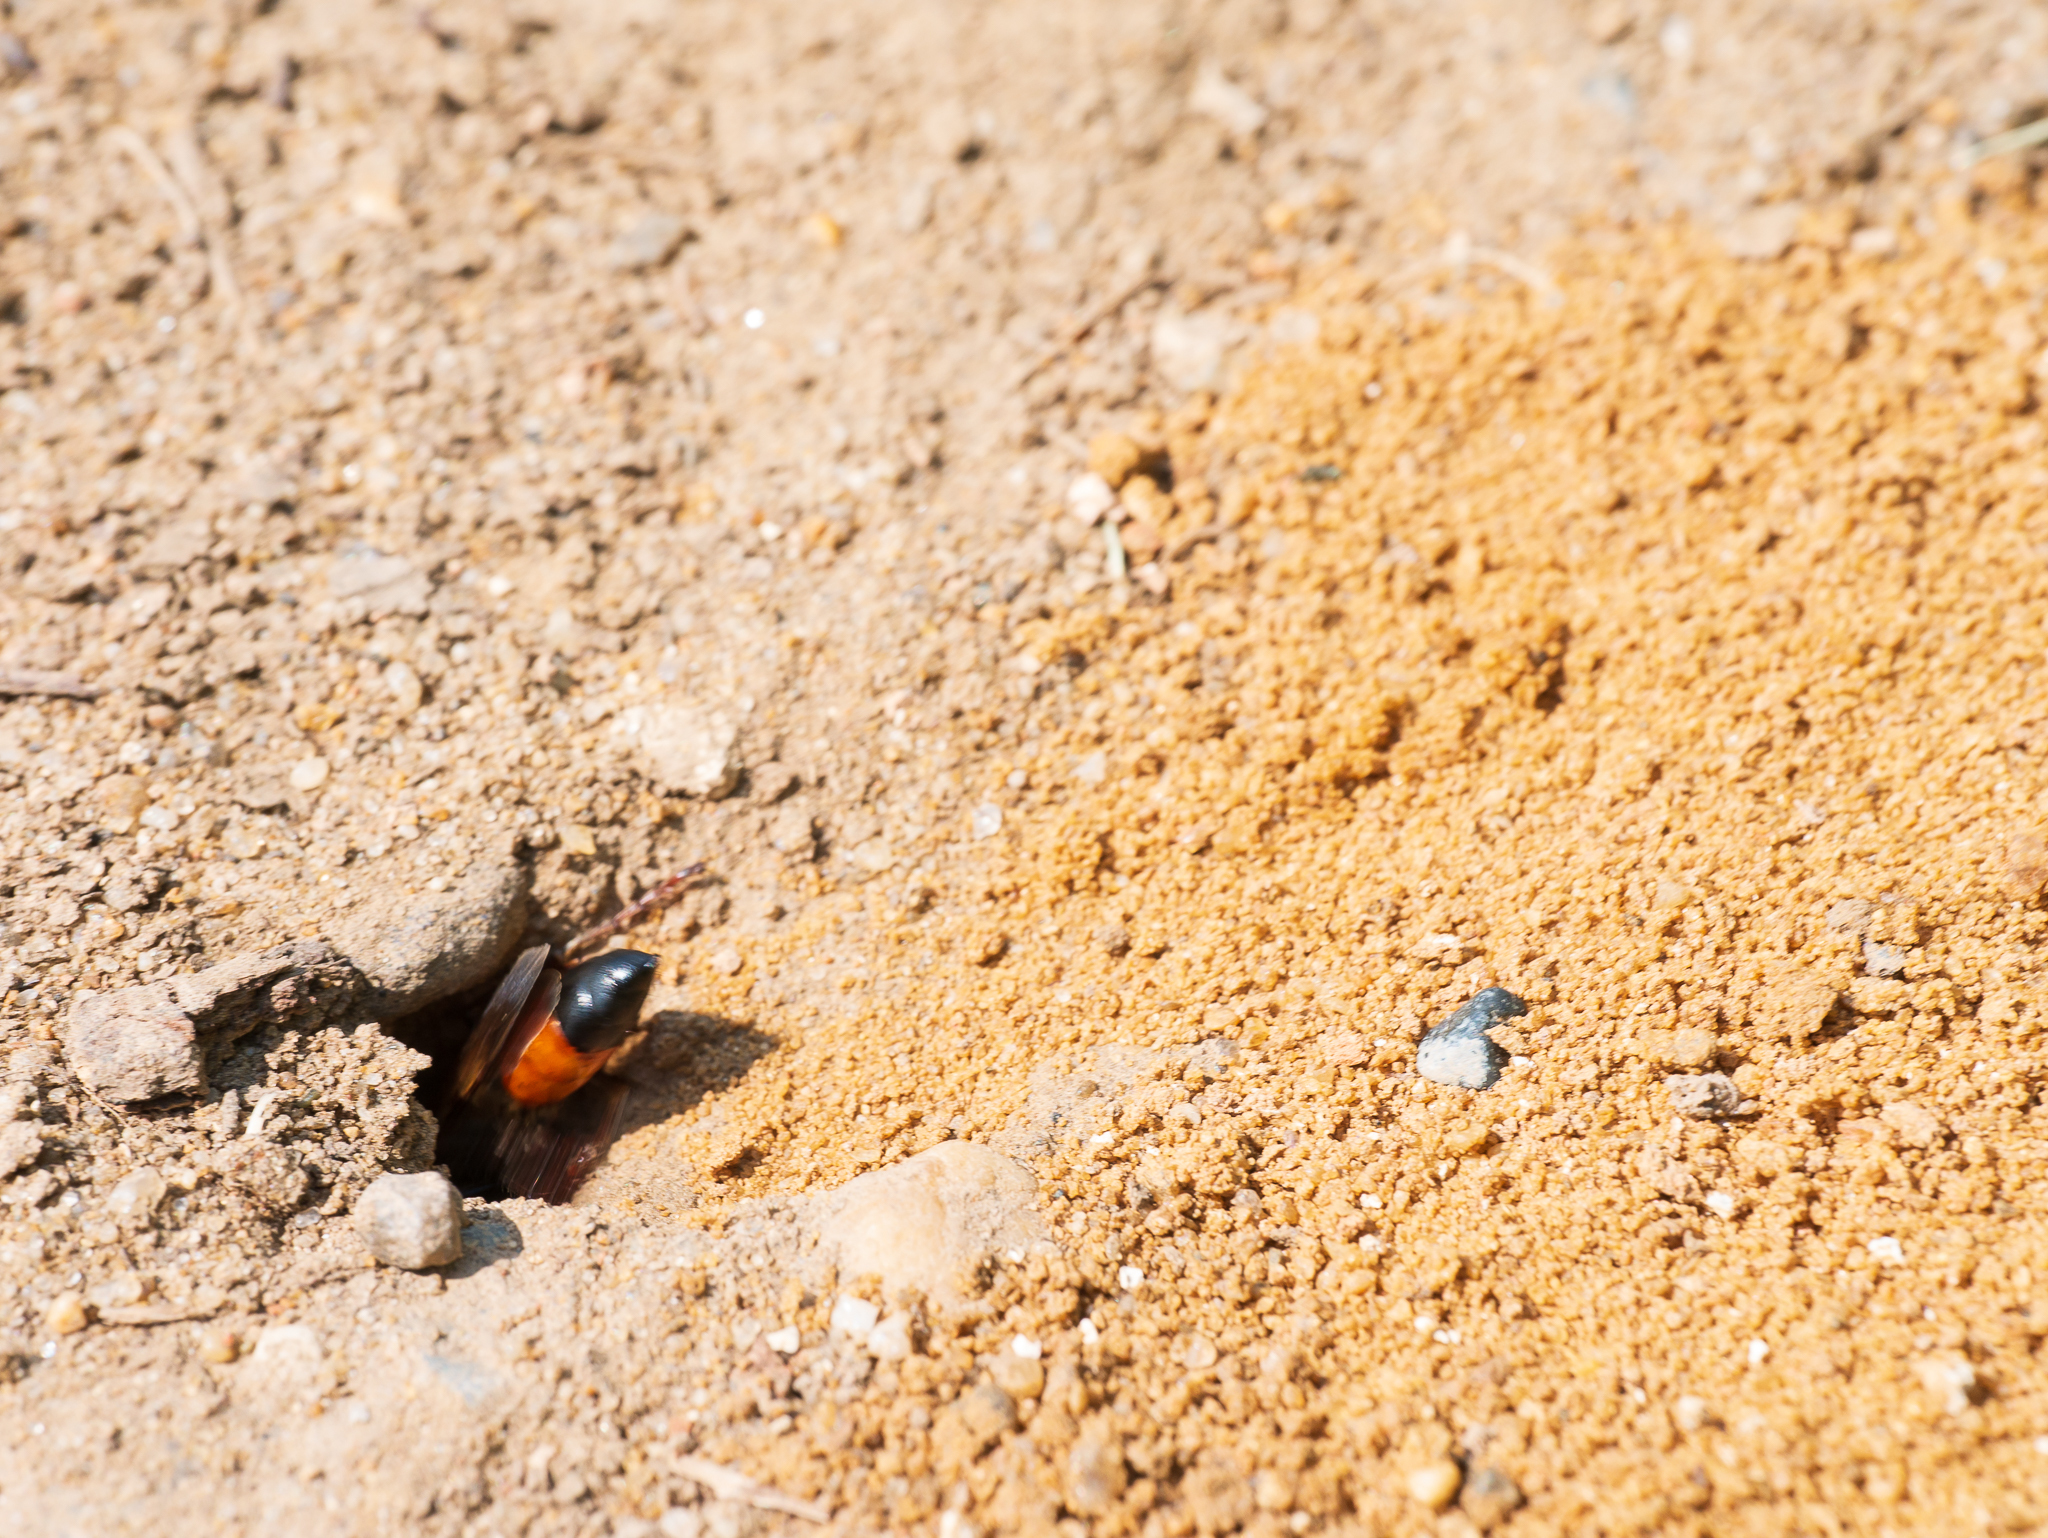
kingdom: Animalia
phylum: Arthropoda
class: Insecta
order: Hymenoptera
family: Sphecidae
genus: Sphex
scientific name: Sphex funerarius
